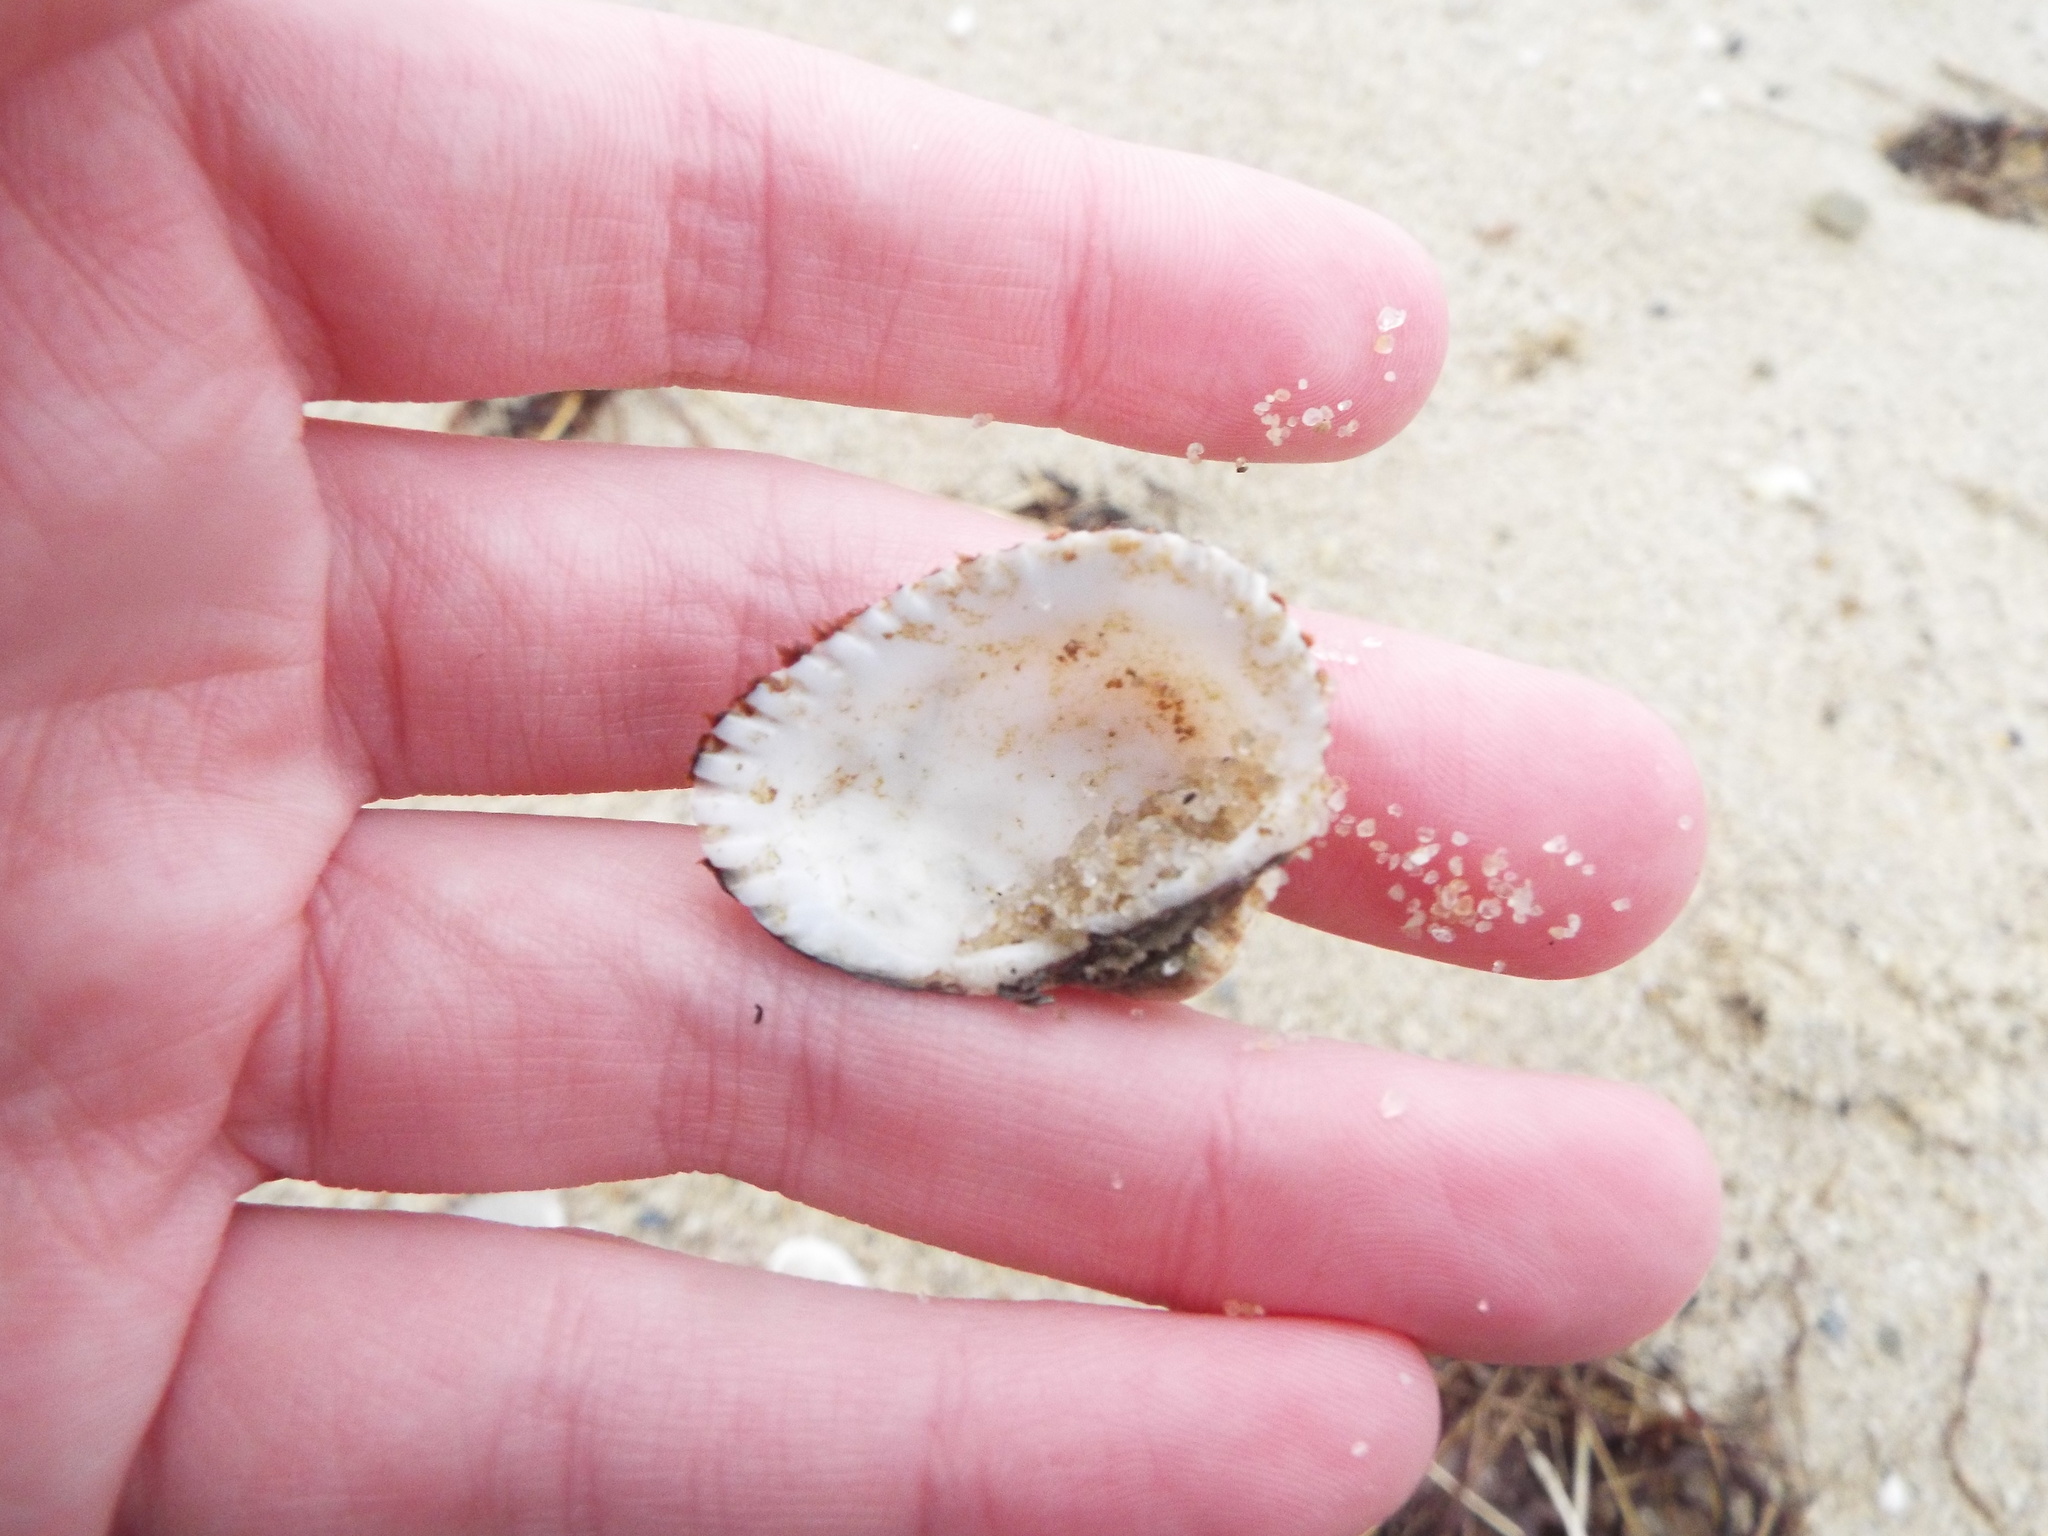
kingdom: Animalia
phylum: Mollusca
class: Bivalvia
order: Arcida
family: Arcidae
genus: Anadara
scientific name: Anadara transversa
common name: Transverse ark
